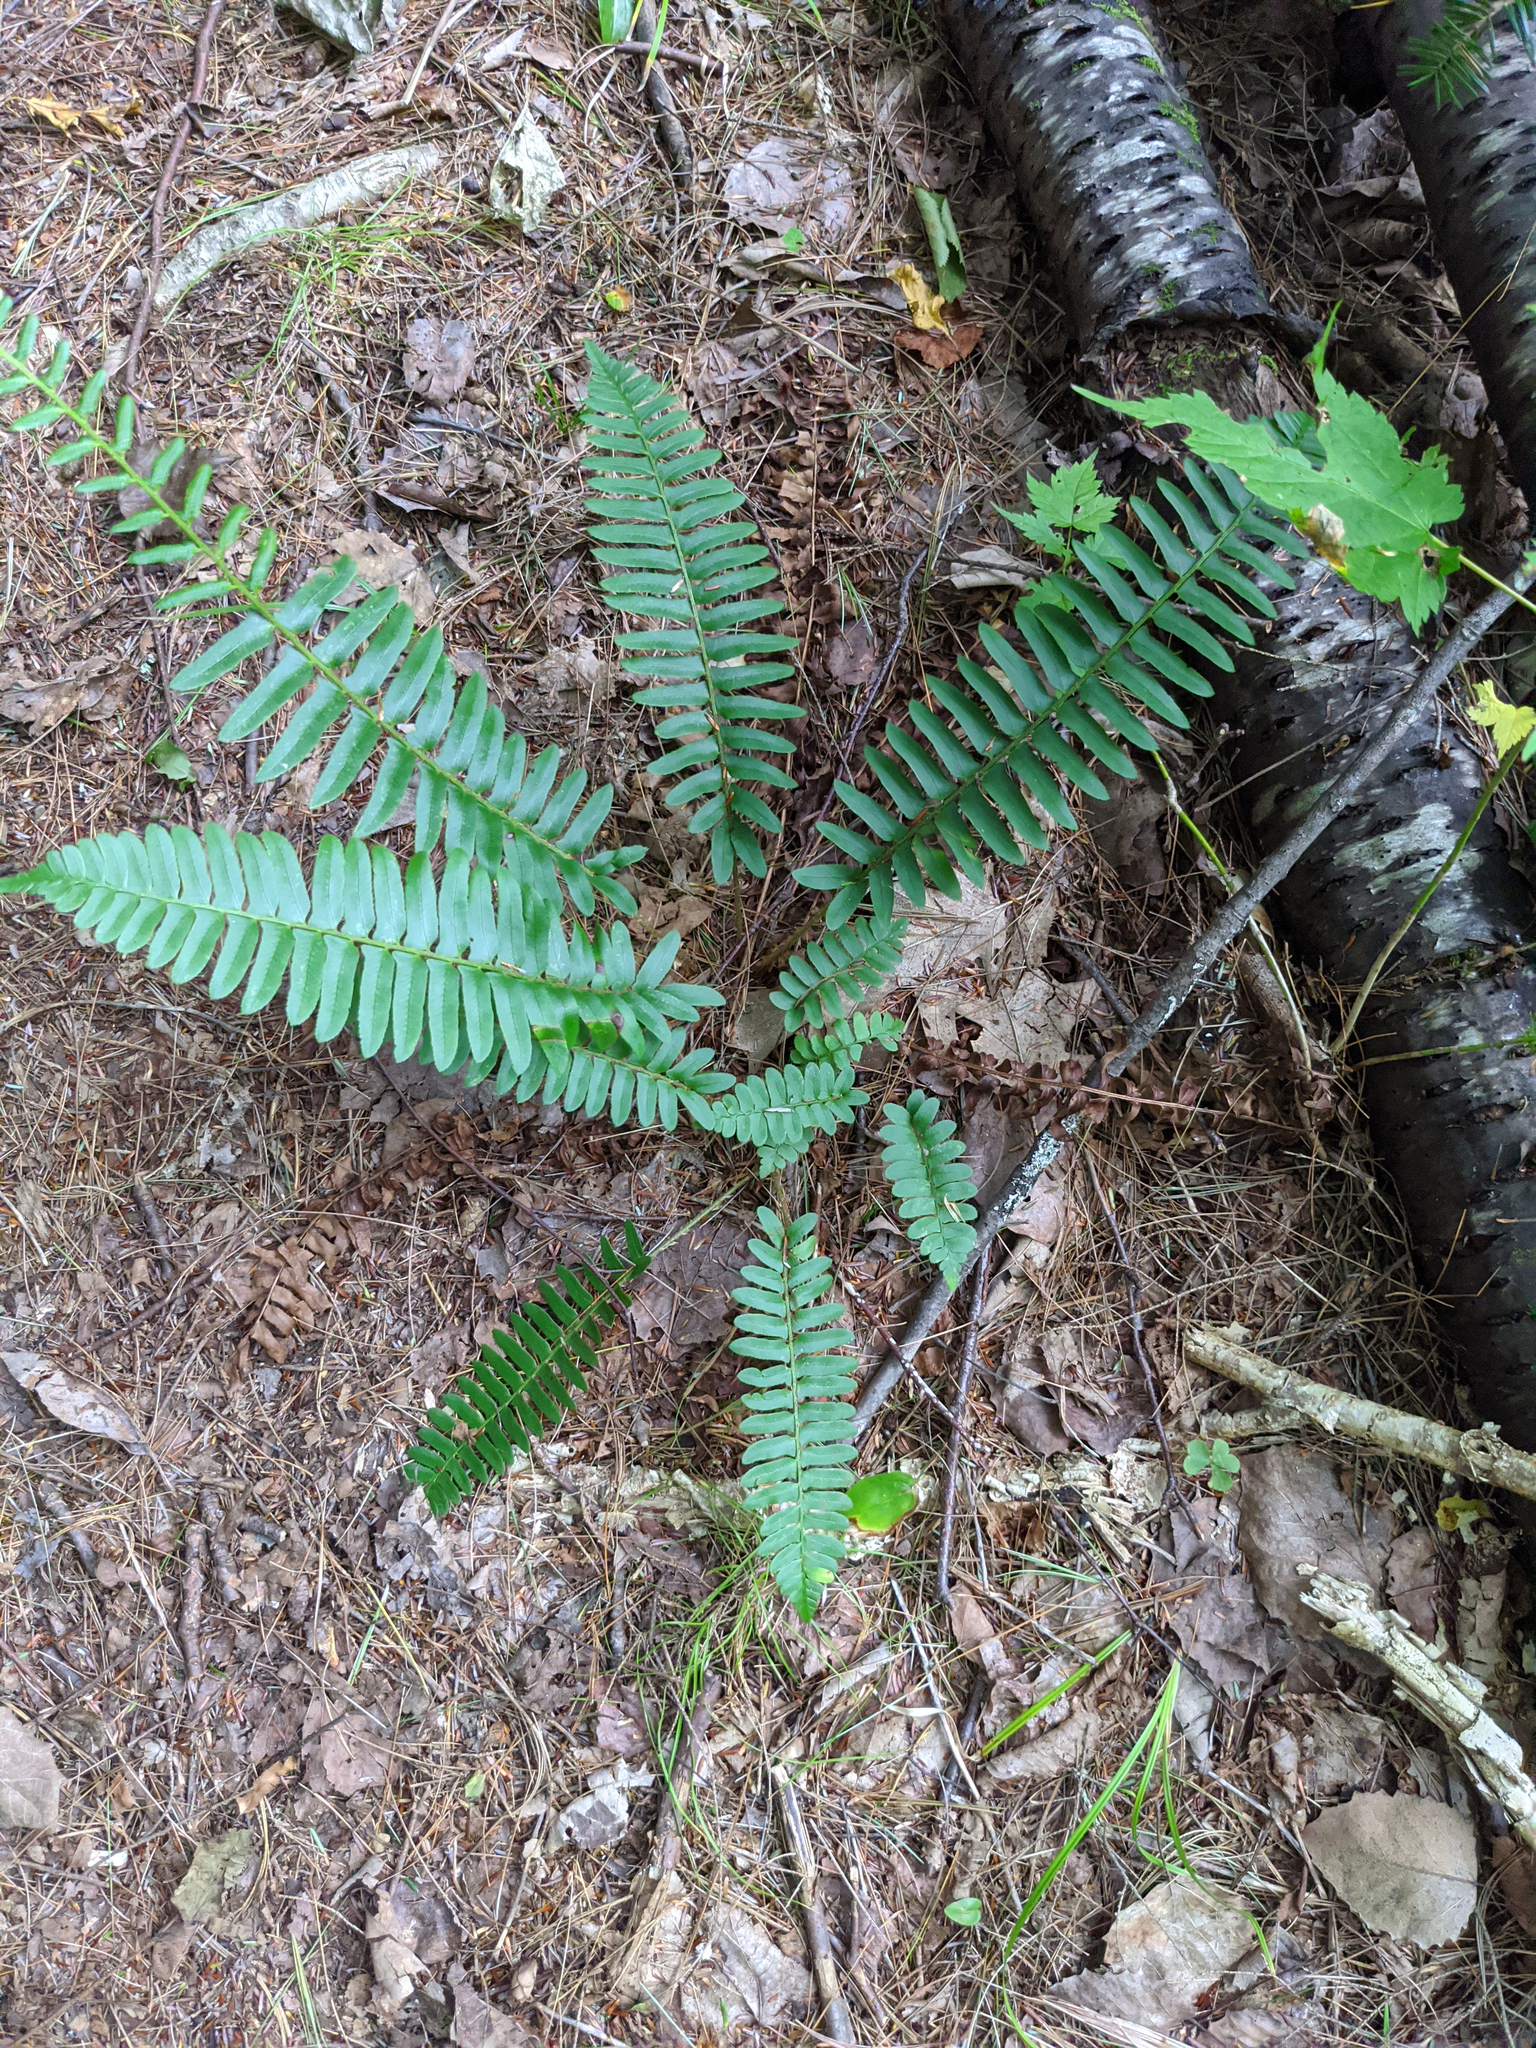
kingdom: Plantae
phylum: Tracheophyta
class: Polypodiopsida
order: Polypodiales
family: Dryopteridaceae
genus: Polystichum
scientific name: Polystichum acrostichoides
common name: Christmas fern
